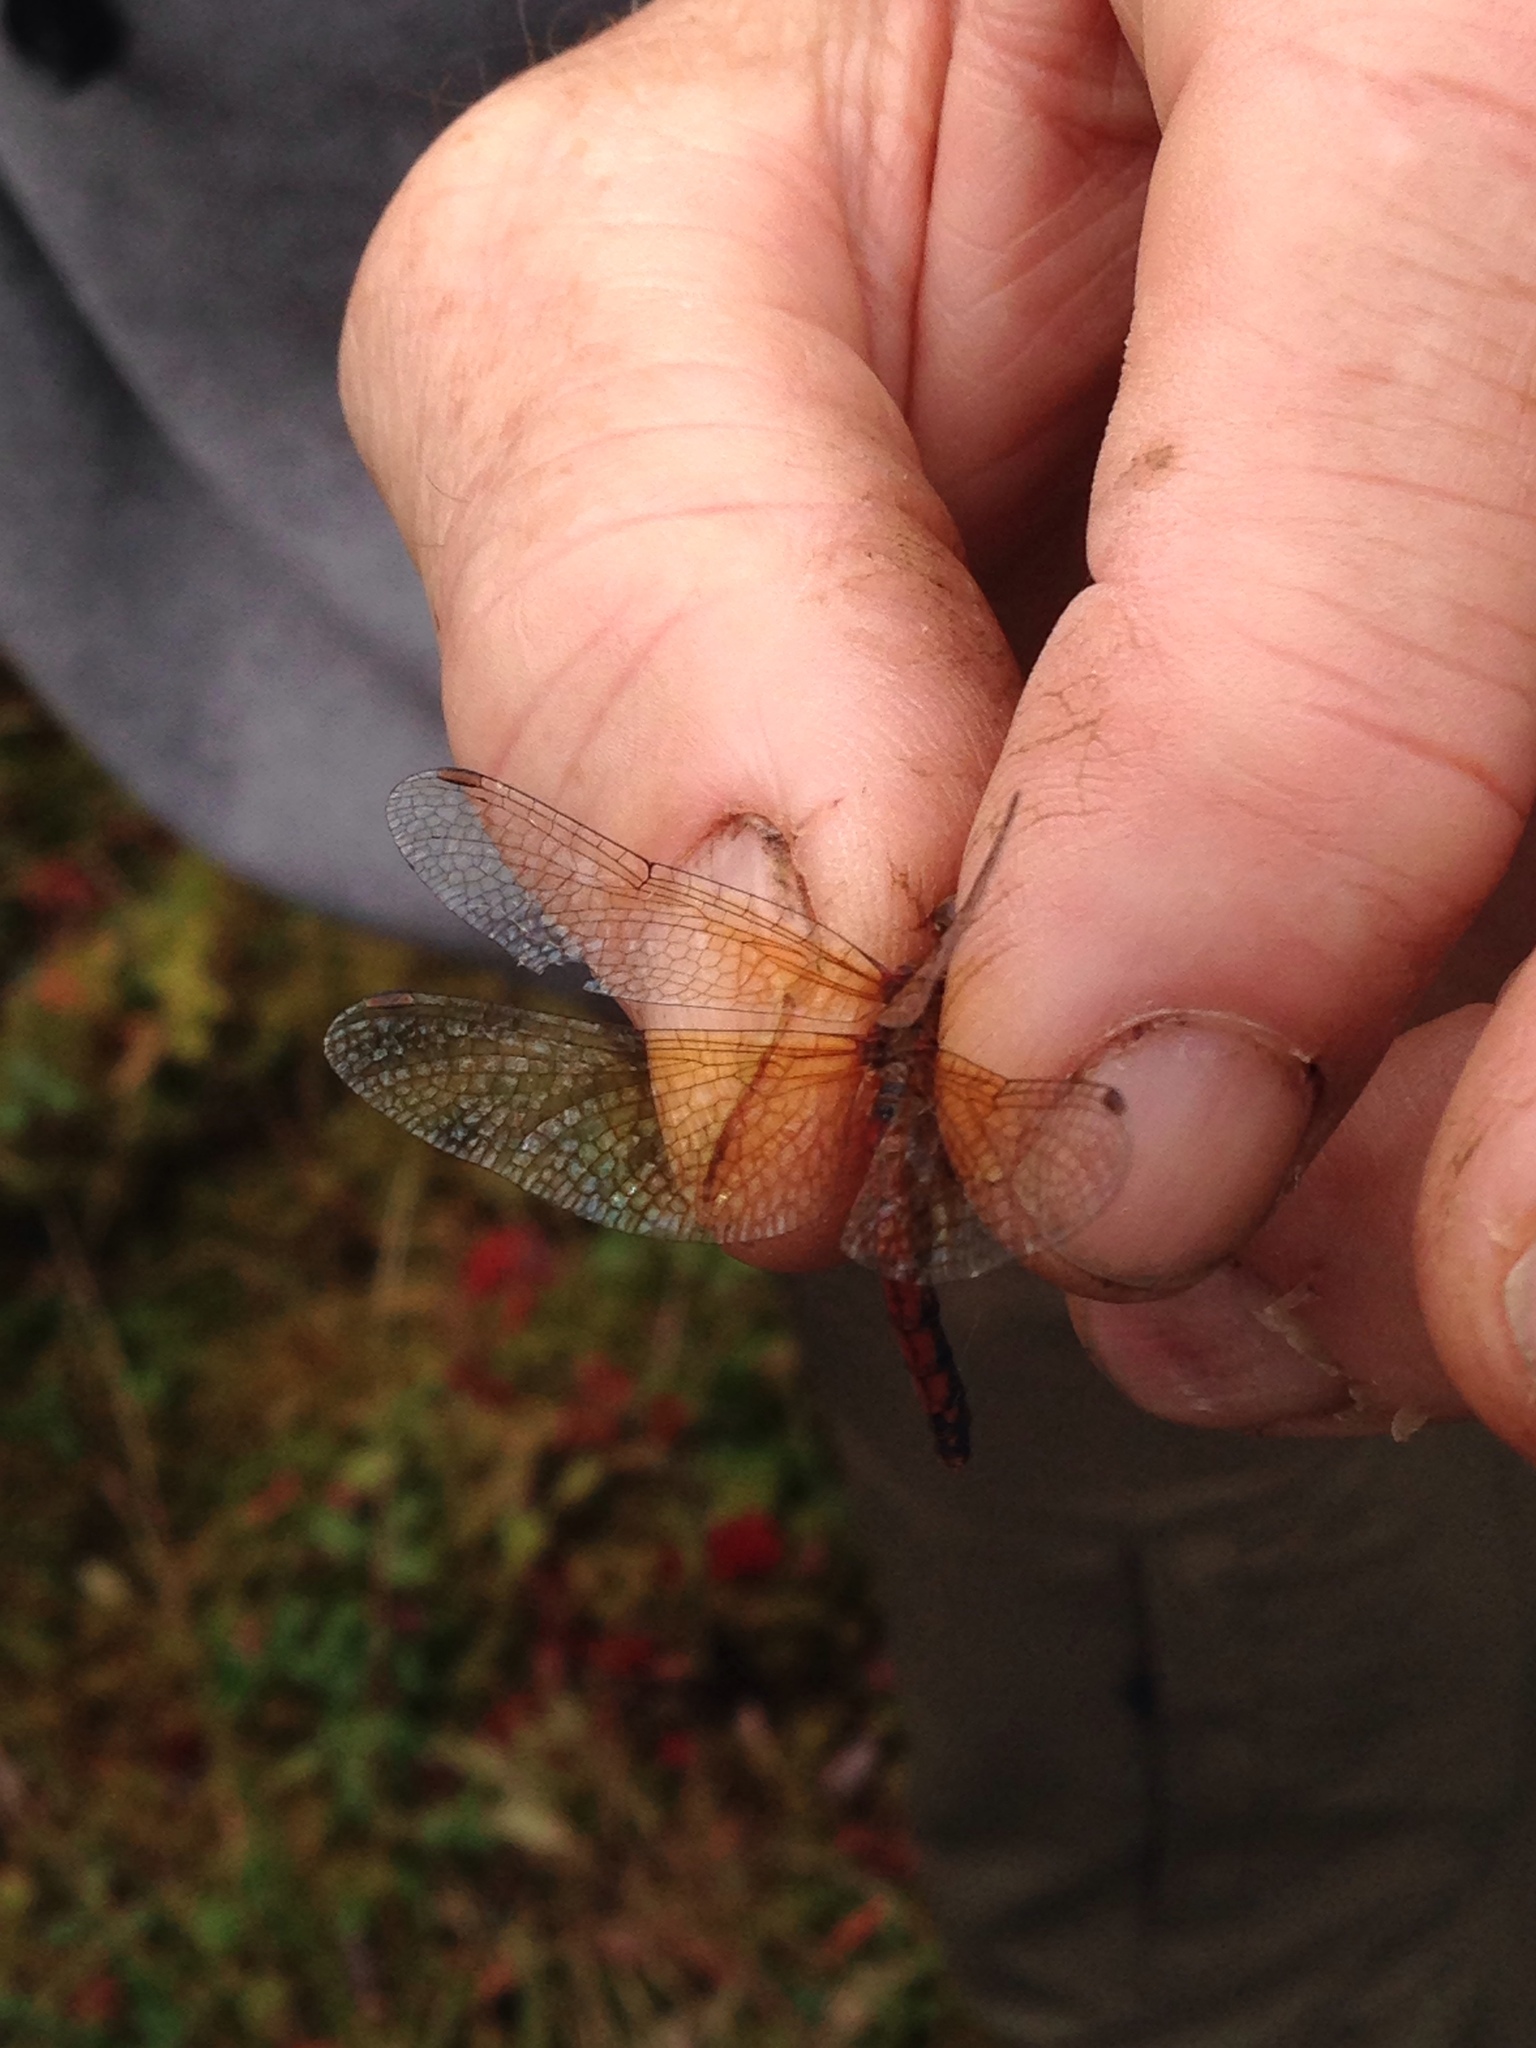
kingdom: Animalia
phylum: Arthropoda
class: Insecta
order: Odonata
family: Libellulidae
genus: Sympetrum
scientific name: Sympetrum semicinctum
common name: Band-winged meadowhawk
